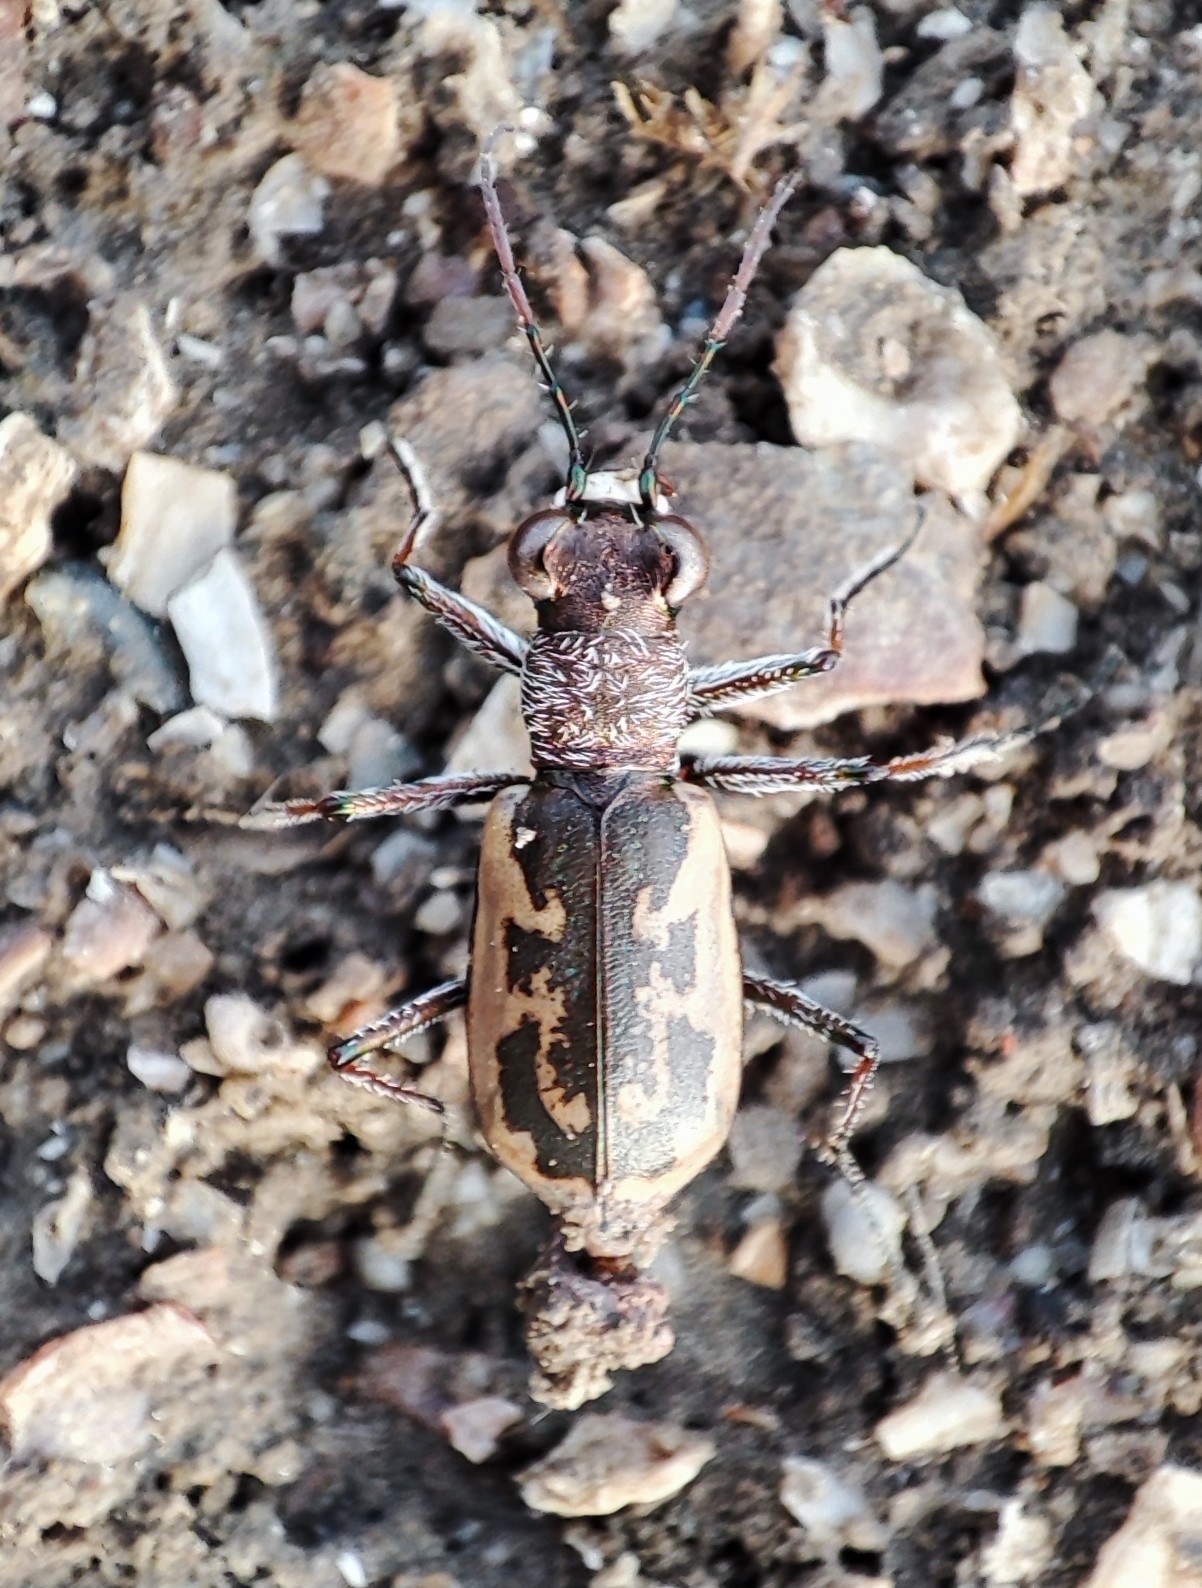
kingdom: Animalia
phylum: Arthropoda
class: Insecta
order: Coleoptera
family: Carabidae
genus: Cephalota
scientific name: Cephalota chiloleuca
